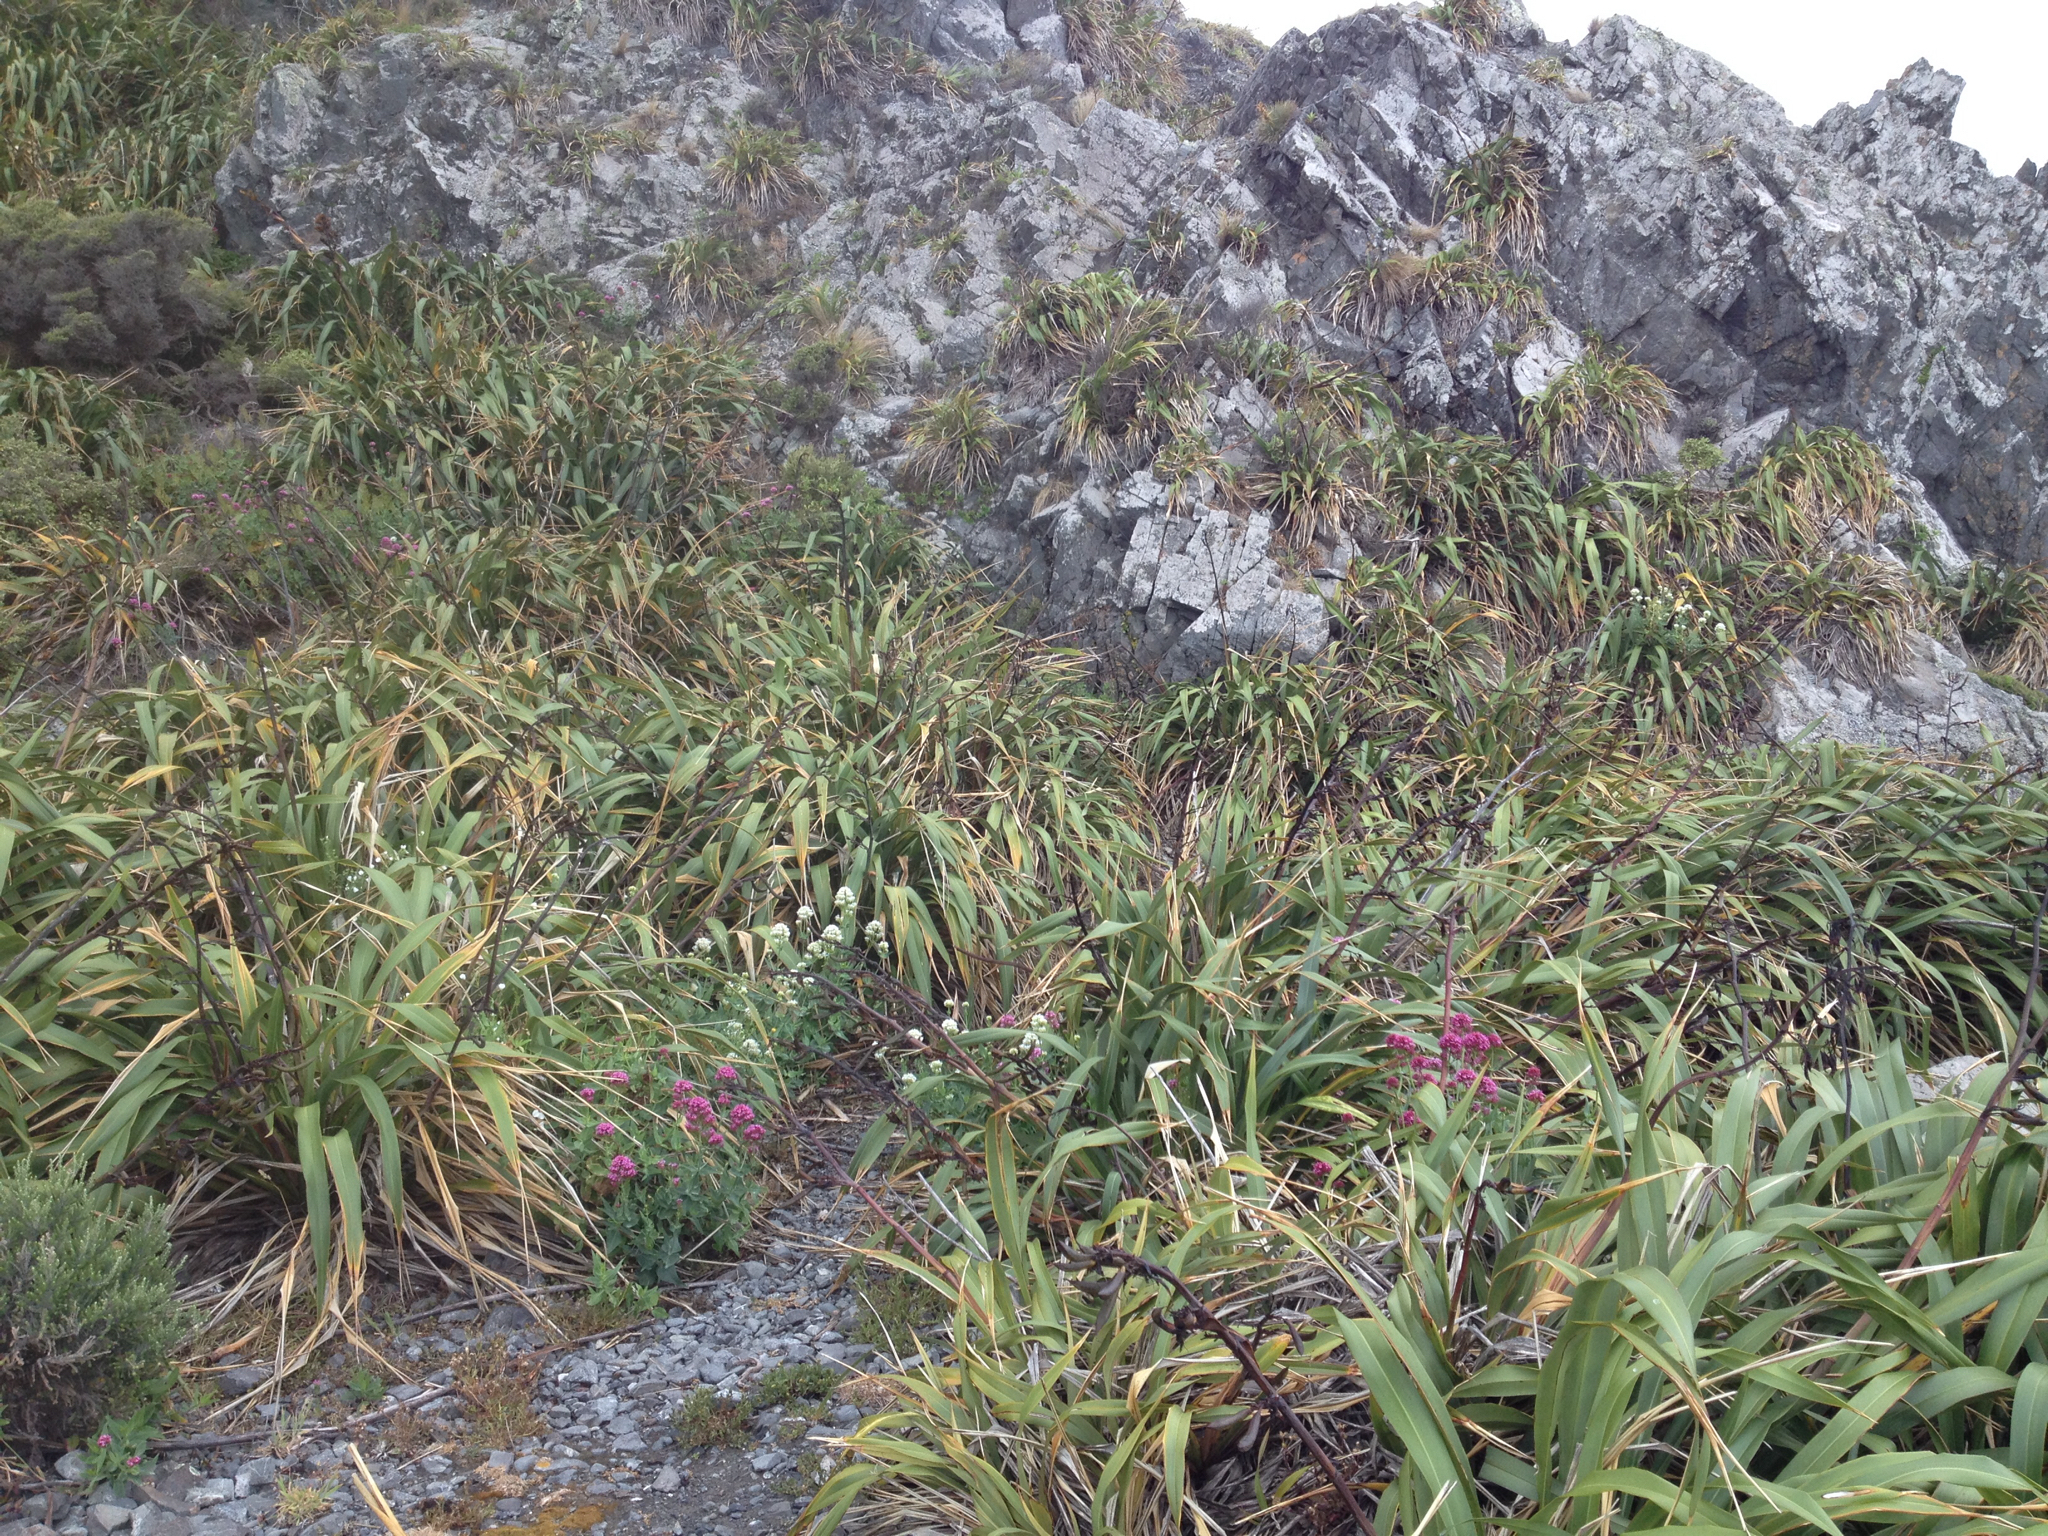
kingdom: Plantae
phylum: Tracheophyta
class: Magnoliopsida
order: Dipsacales
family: Caprifoliaceae
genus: Centranthus
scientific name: Centranthus ruber
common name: Red valerian
